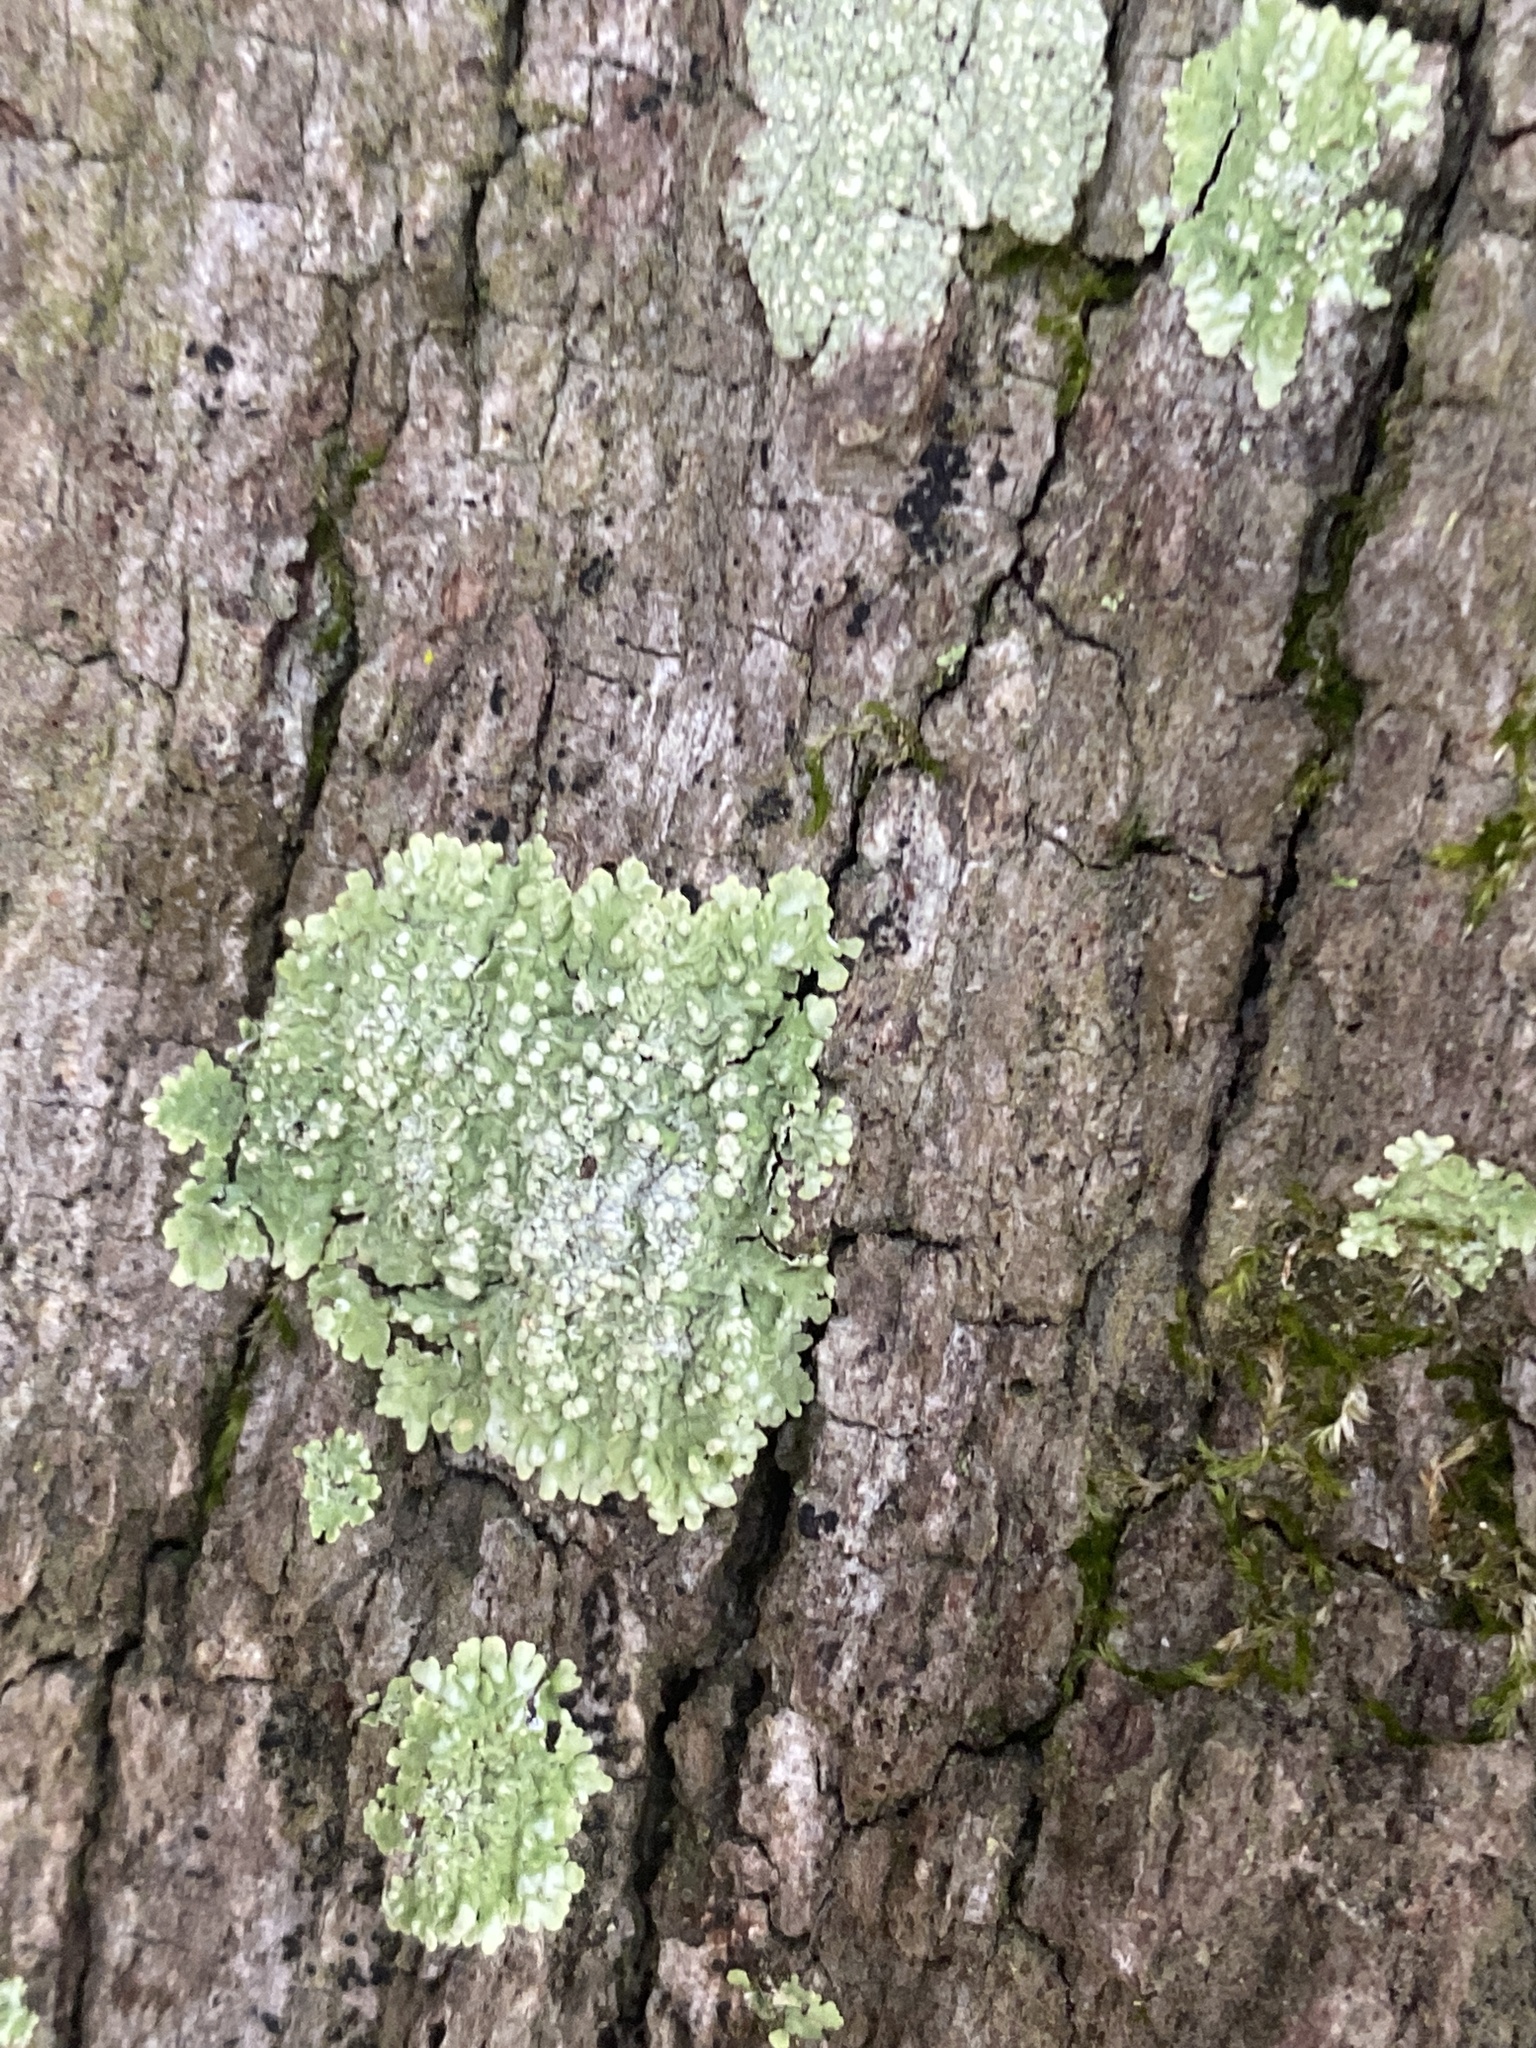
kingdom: Fungi
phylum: Ascomycota
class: Lecanoromycetes
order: Caliciales
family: Caliciaceae
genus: Pyxine
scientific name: Pyxine albovirens
